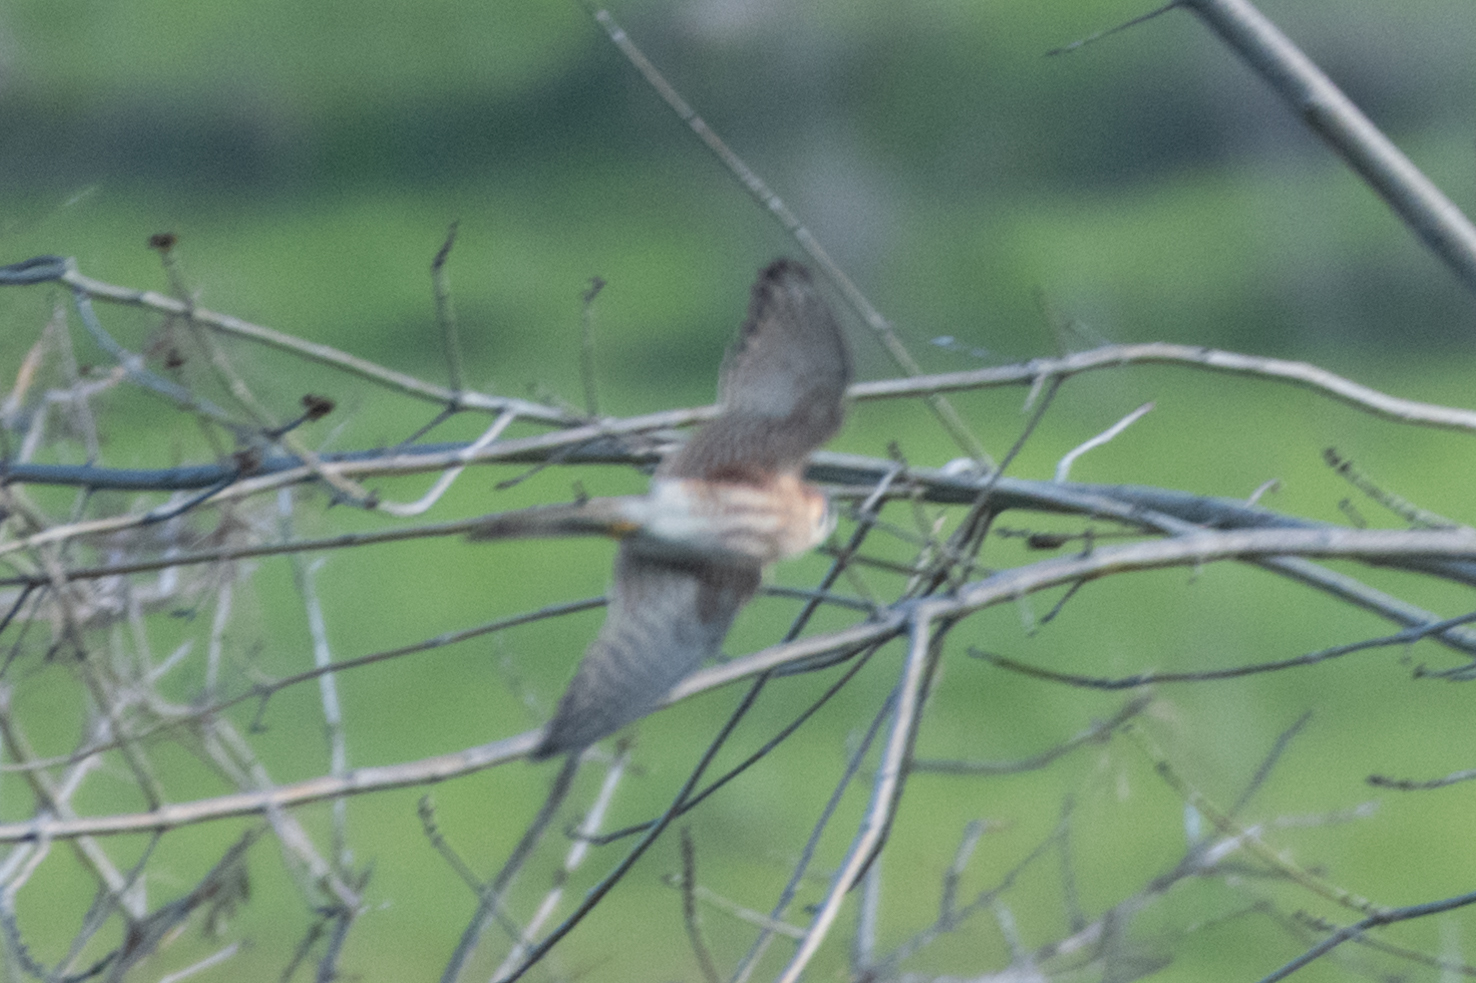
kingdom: Animalia
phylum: Chordata
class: Aves
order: Falconiformes
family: Falconidae
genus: Falco
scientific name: Falco sparverius
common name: American kestrel
